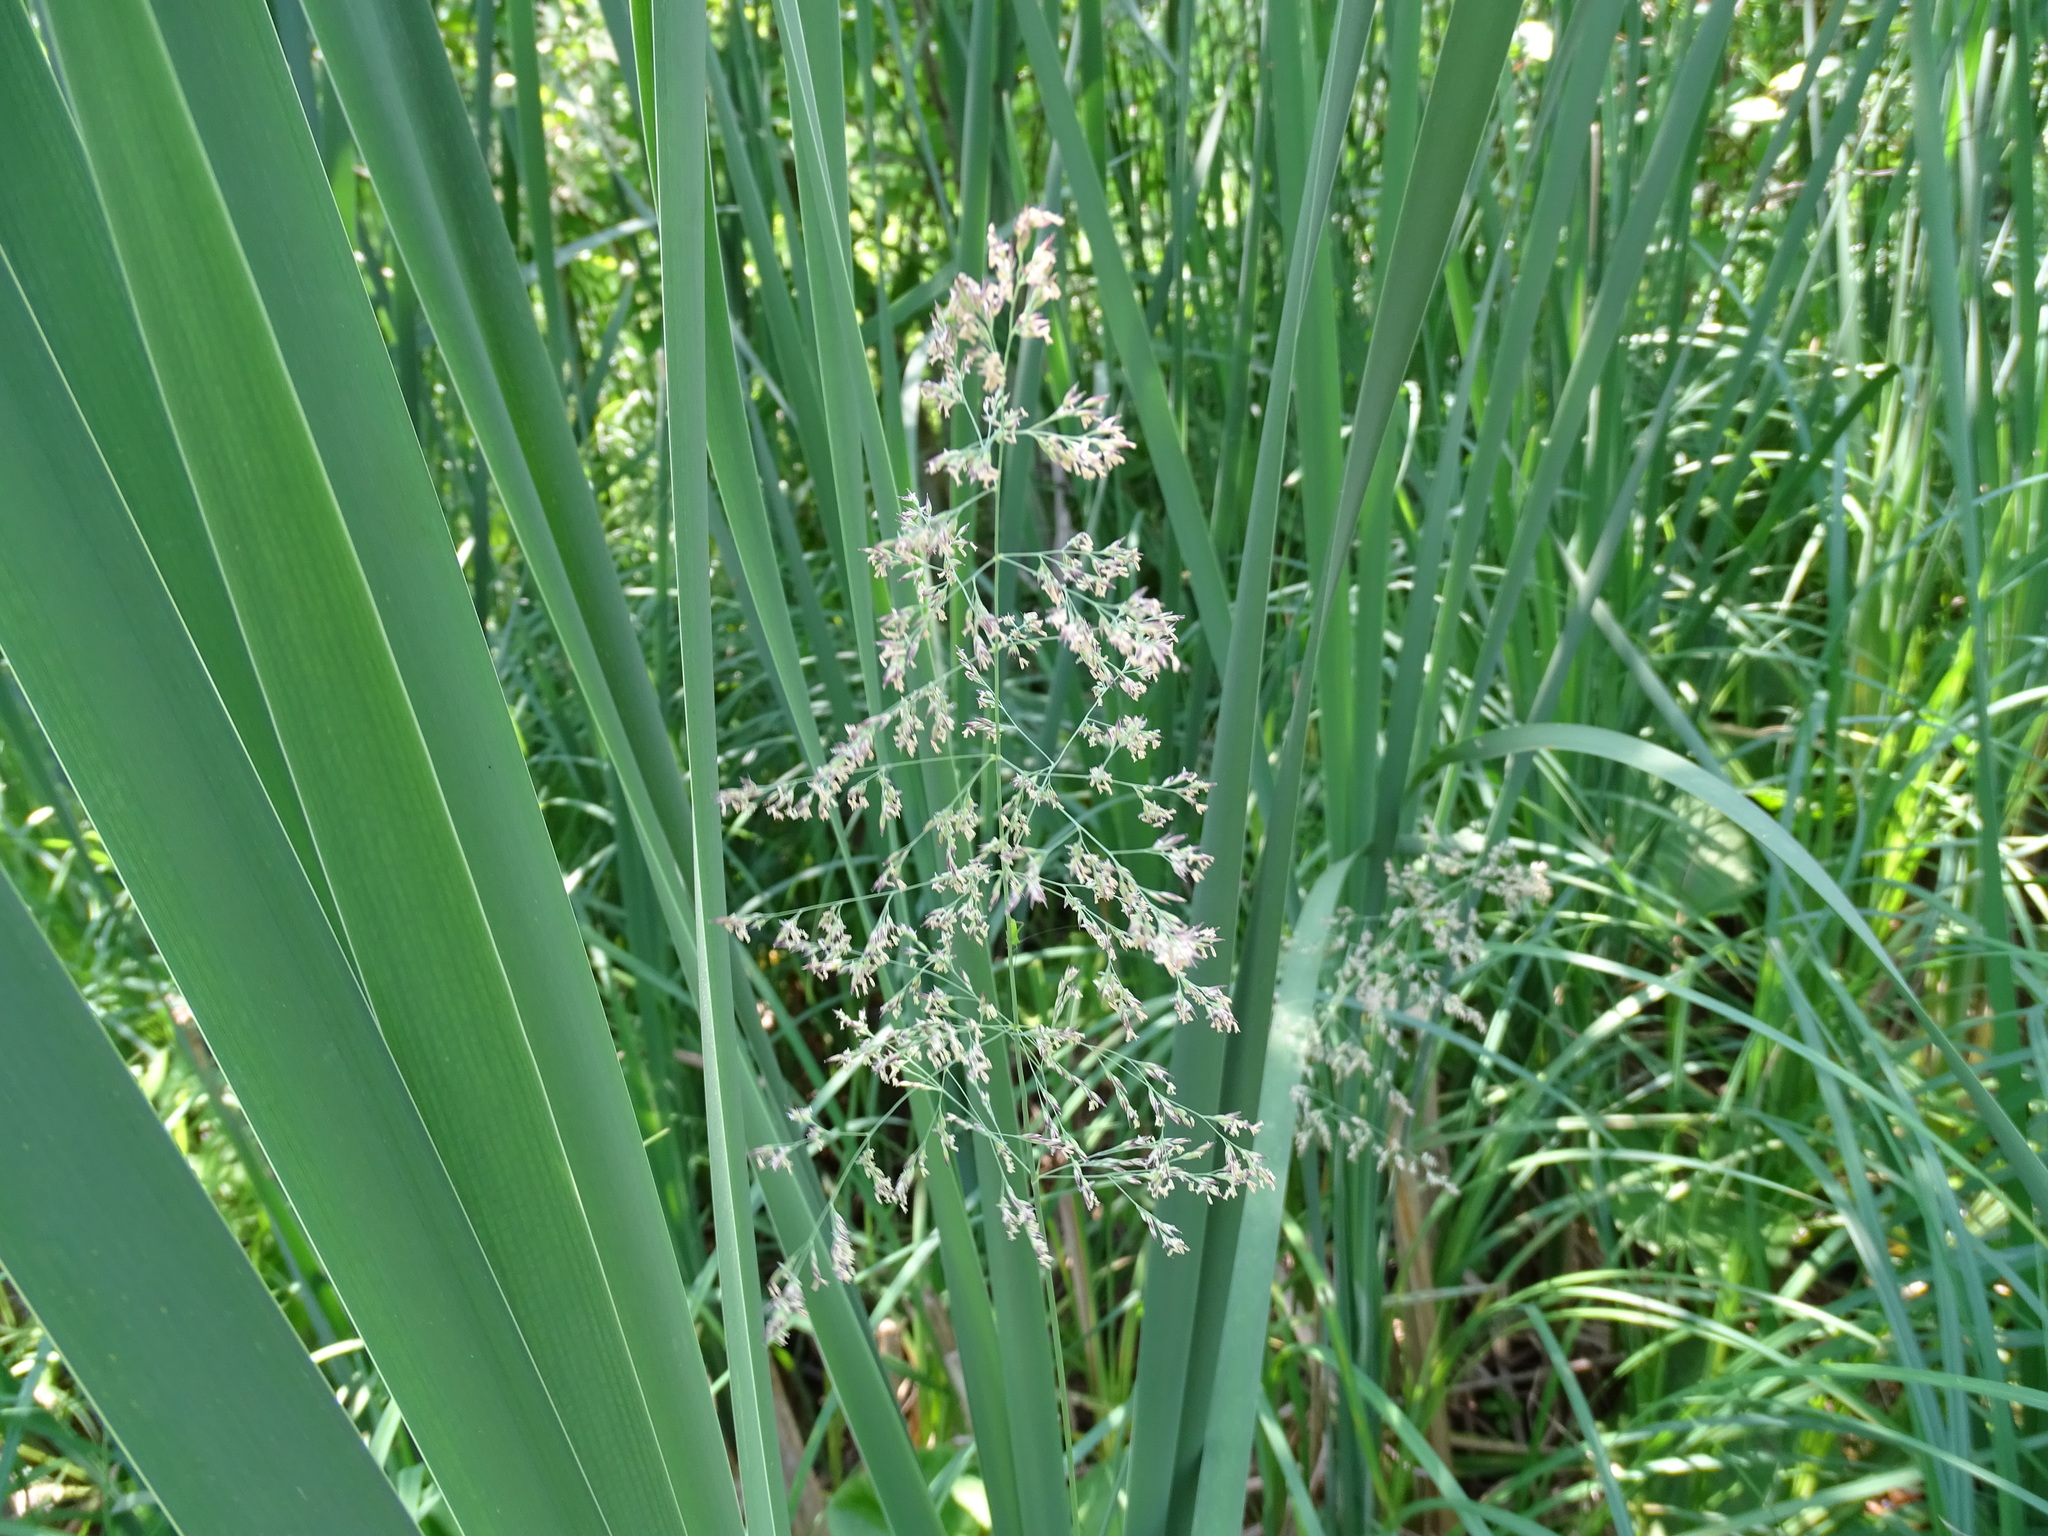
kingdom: Plantae
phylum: Tracheophyta
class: Liliopsida
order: Poales
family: Poaceae
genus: Calamagrostis
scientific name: Calamagrostis canadensis
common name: Canada bluejoint
